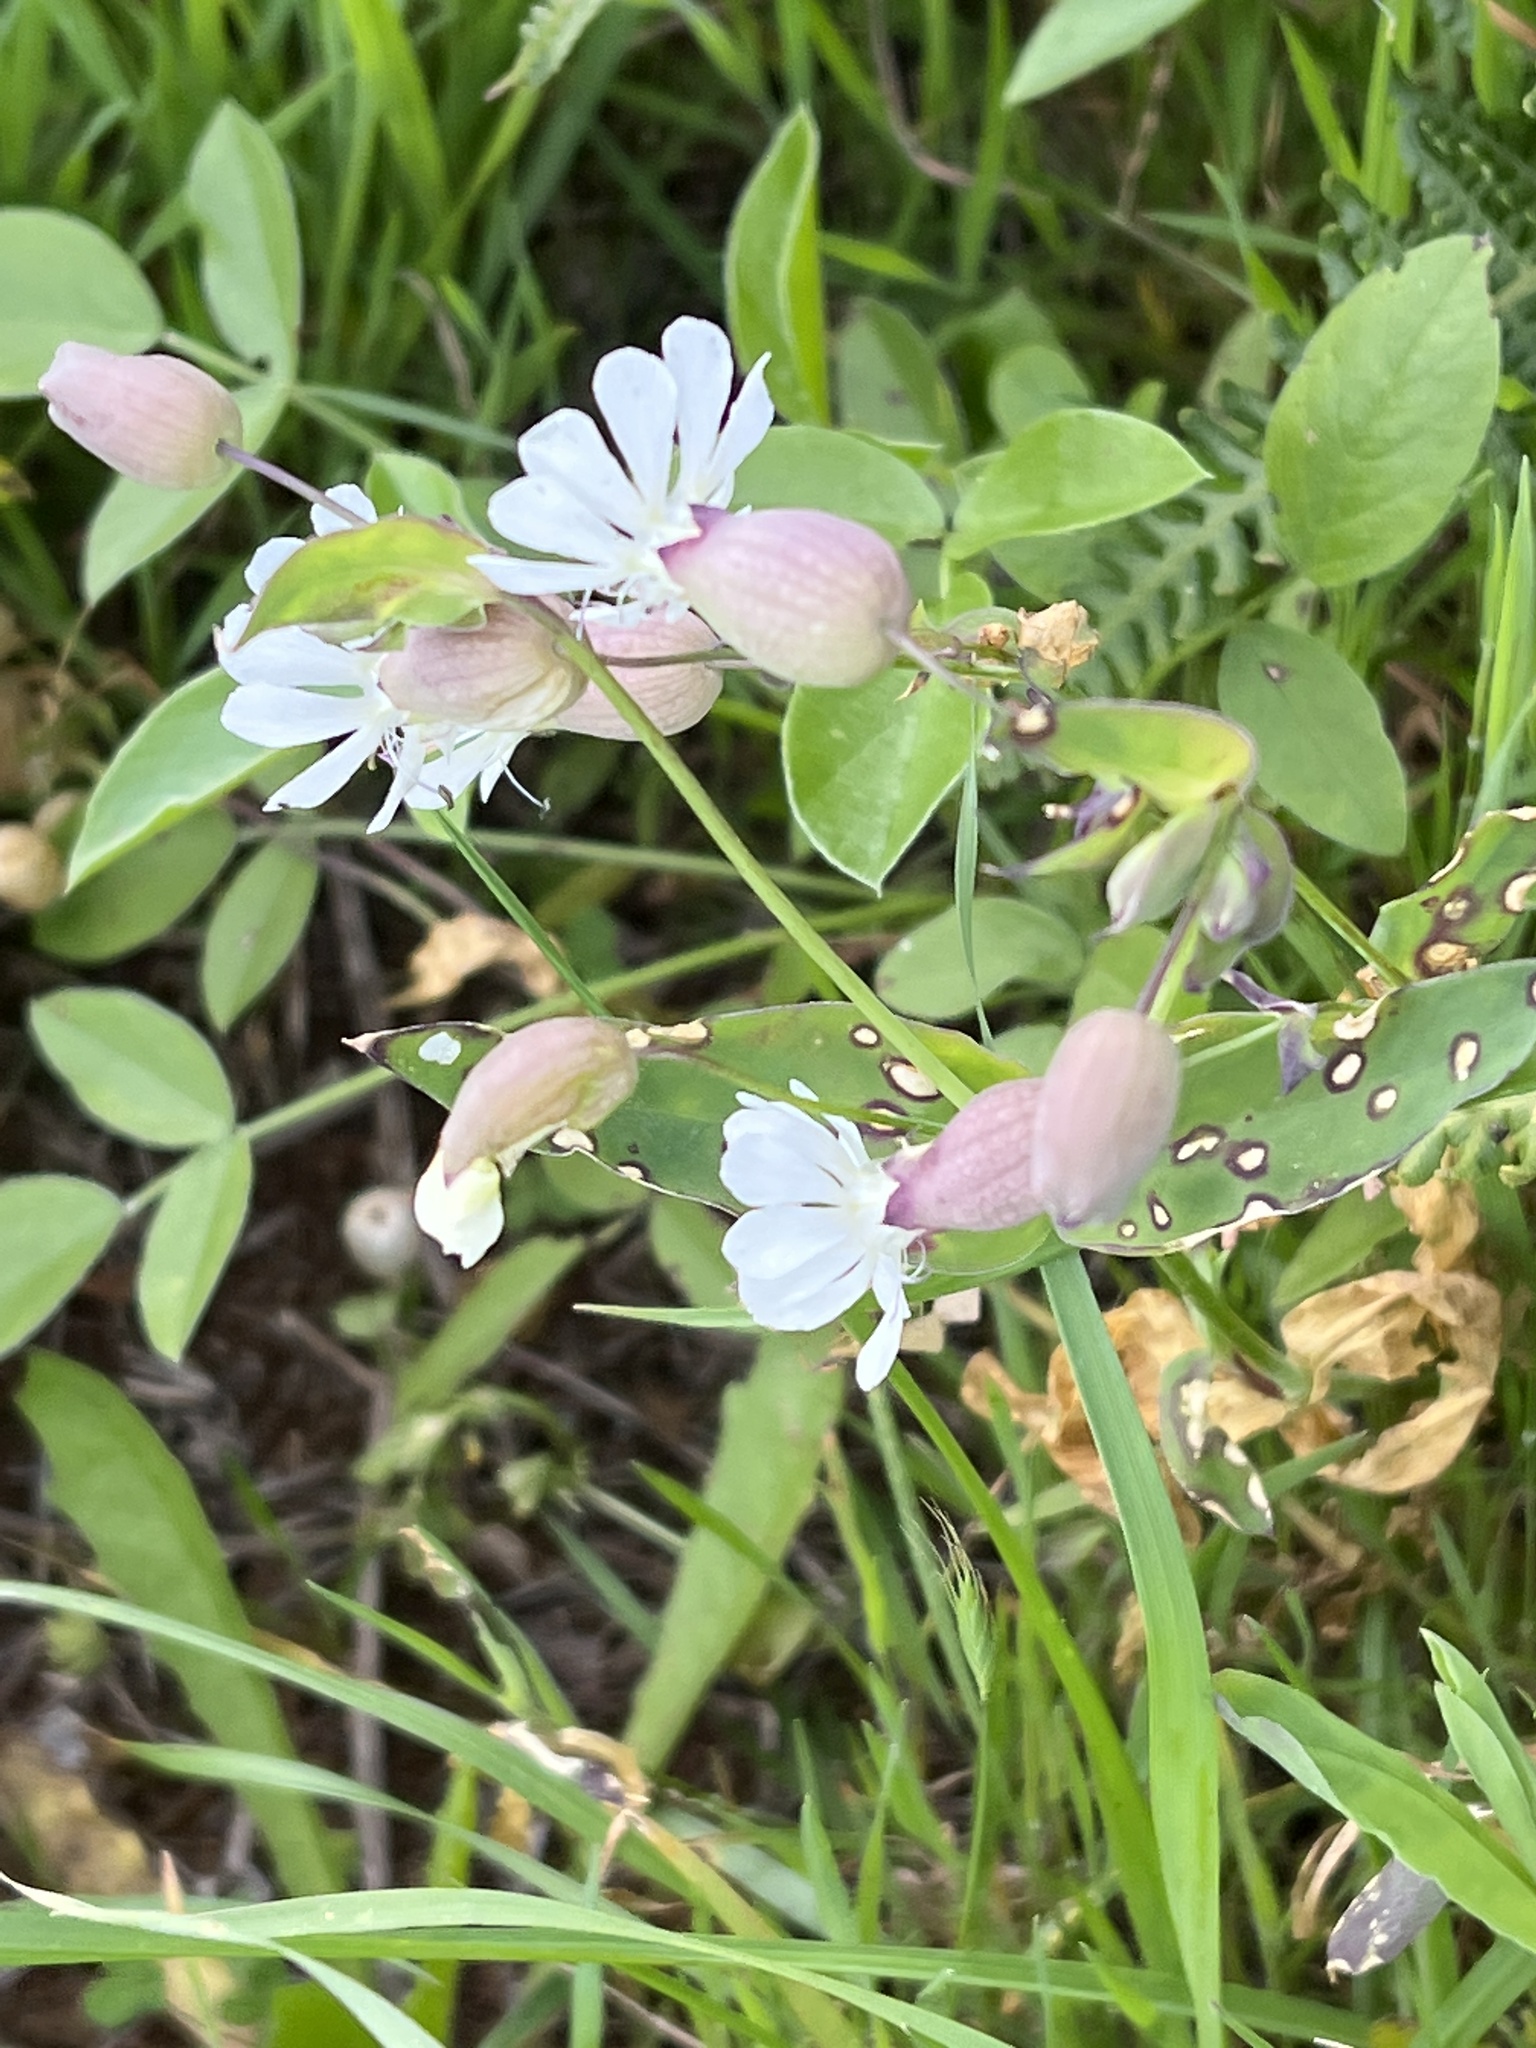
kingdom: Plantae
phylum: Tracheophyta
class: Magnoliopsida
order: Caryophyllales
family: Caryophyllaceae
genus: Silene
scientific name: Silene vulgaris
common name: Bladder campion
